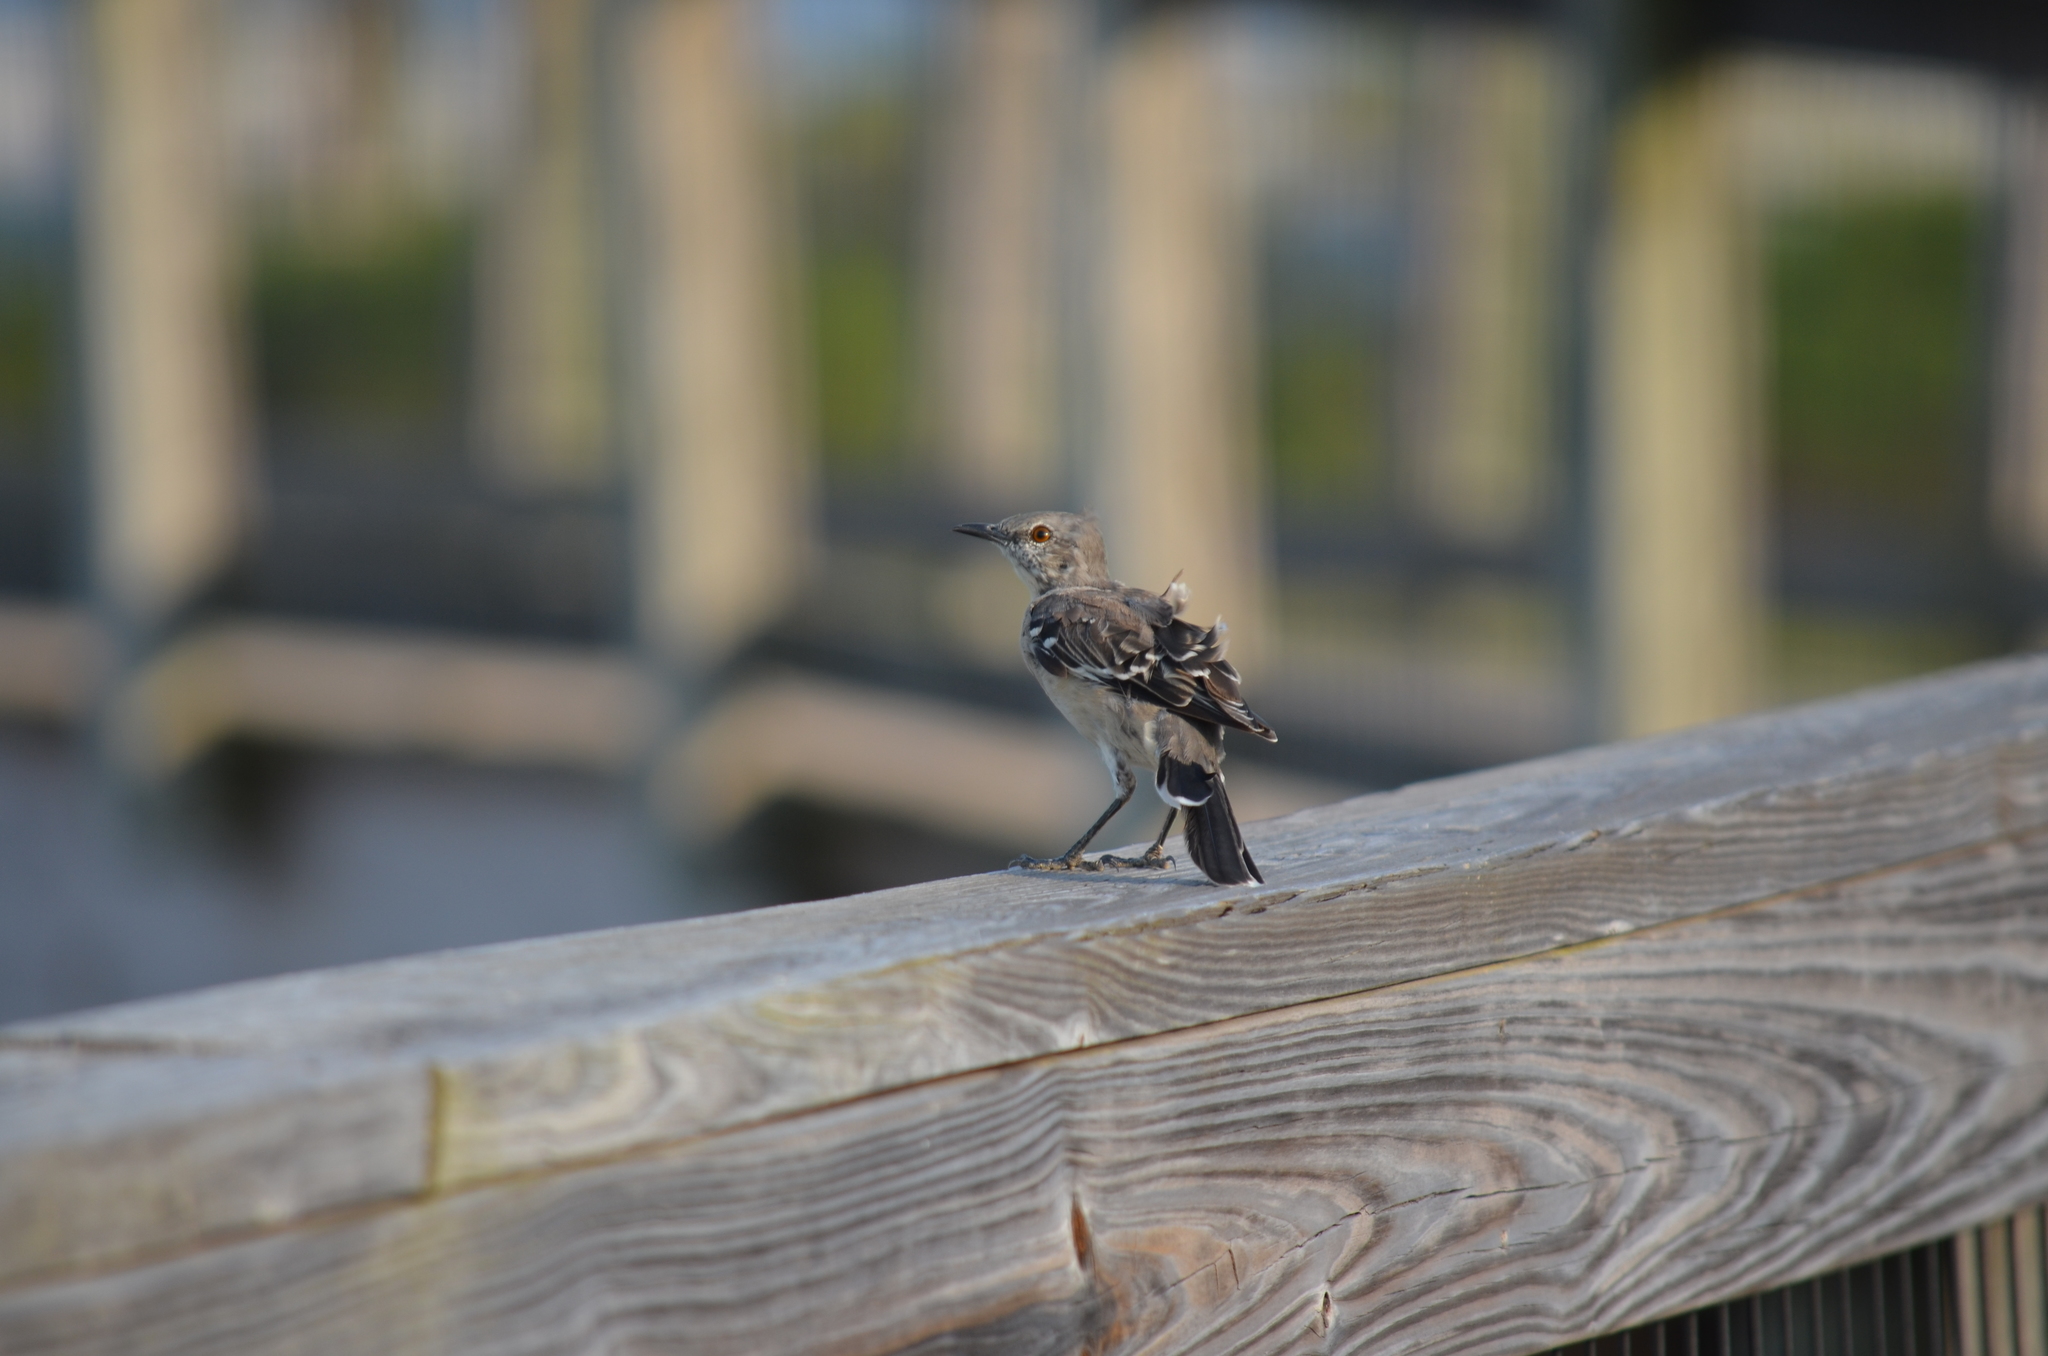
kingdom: Animalia
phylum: Chordata
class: Aves
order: Passeriformes
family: Mimidae
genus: Mimus
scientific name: Mimus polyglottos
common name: Northern mockingbird
